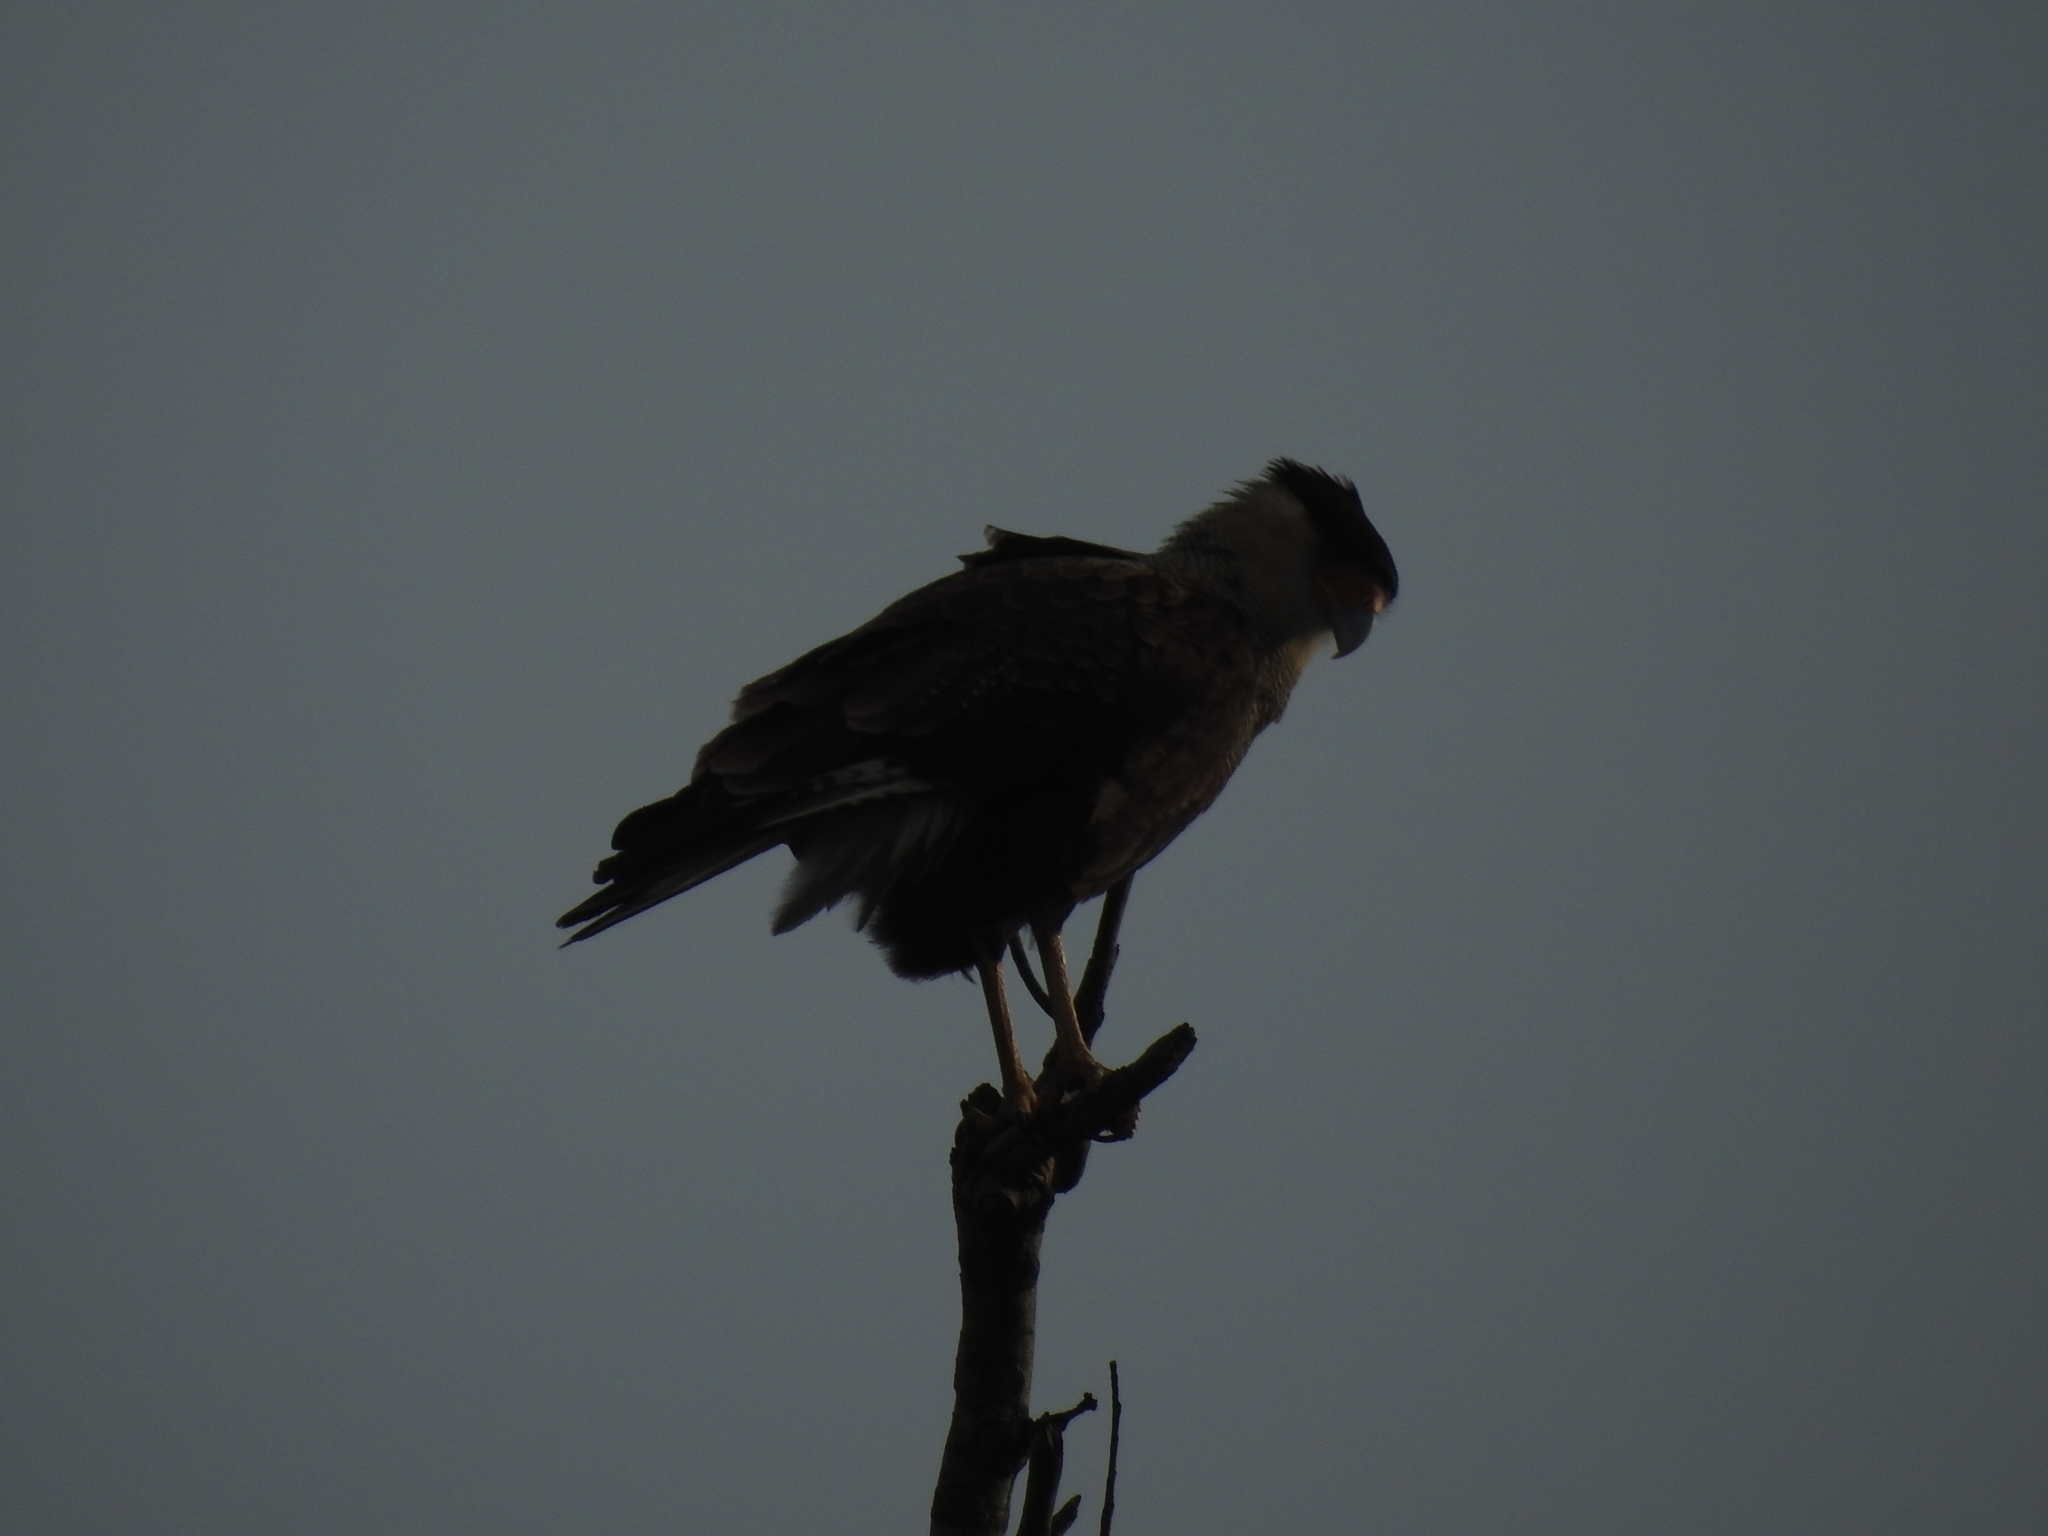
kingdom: Animalia
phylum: Chordata
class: Aves
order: Falconiformes
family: Falconidae
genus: Caracara
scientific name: Caracara plancus
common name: Southern caracara
